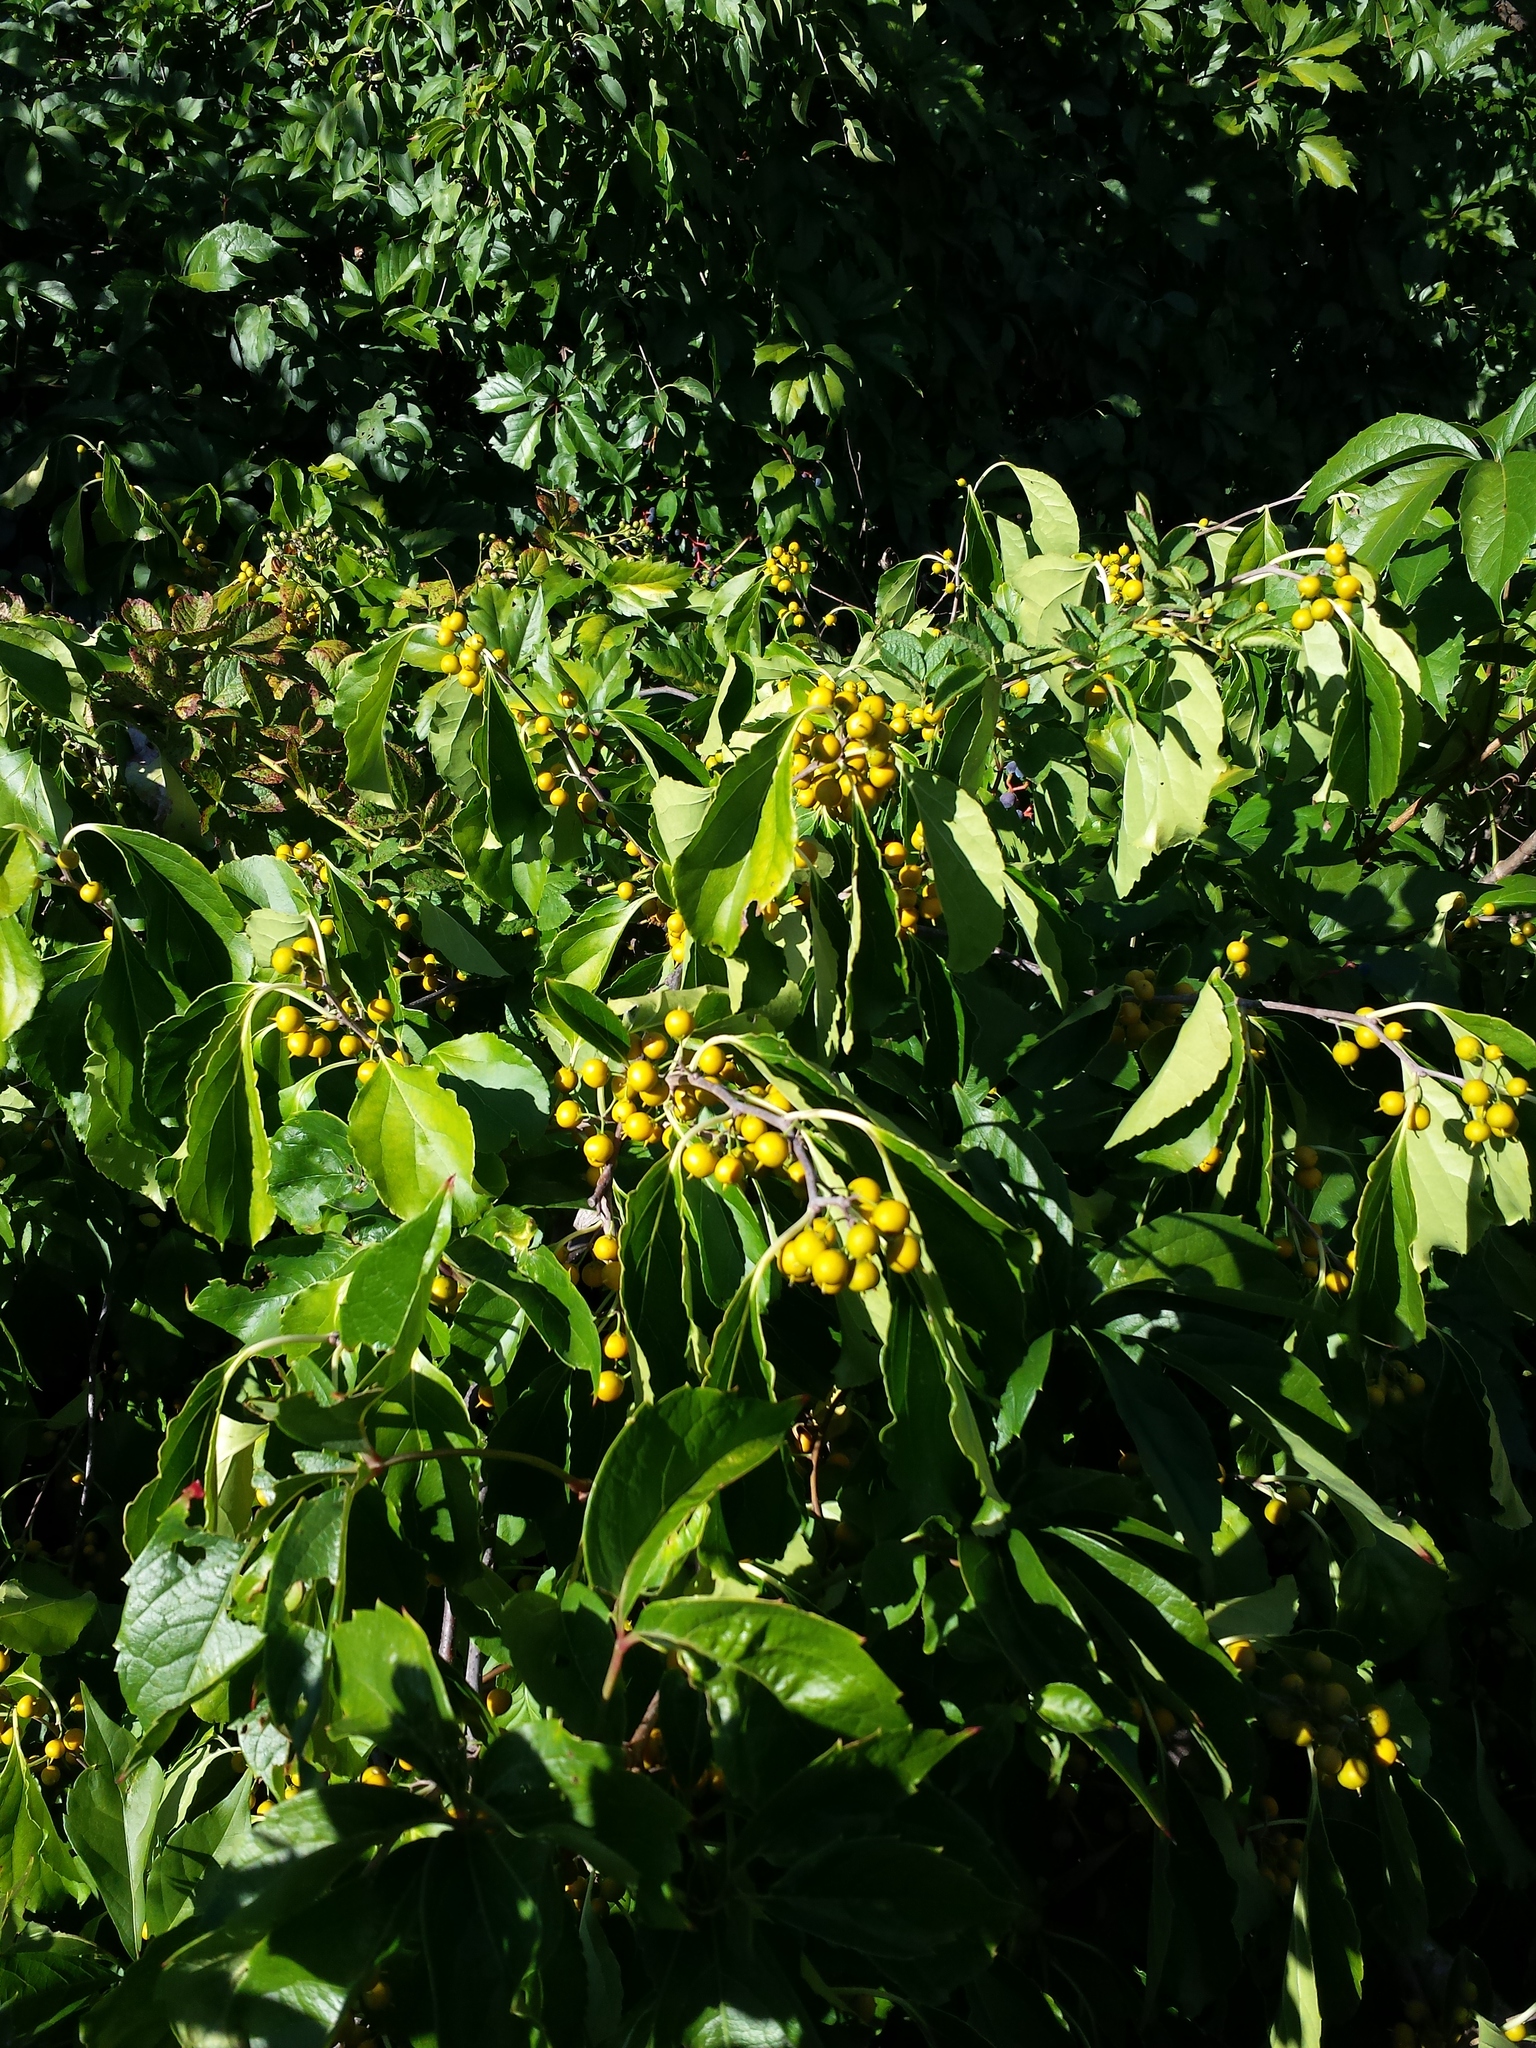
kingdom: Plantae
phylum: Tracheophyta
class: Magnoliopsida
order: Celastrales
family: Celastraceae
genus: Celastrus
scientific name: Celastrus orbiculatus
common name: Oriental bittersweet
